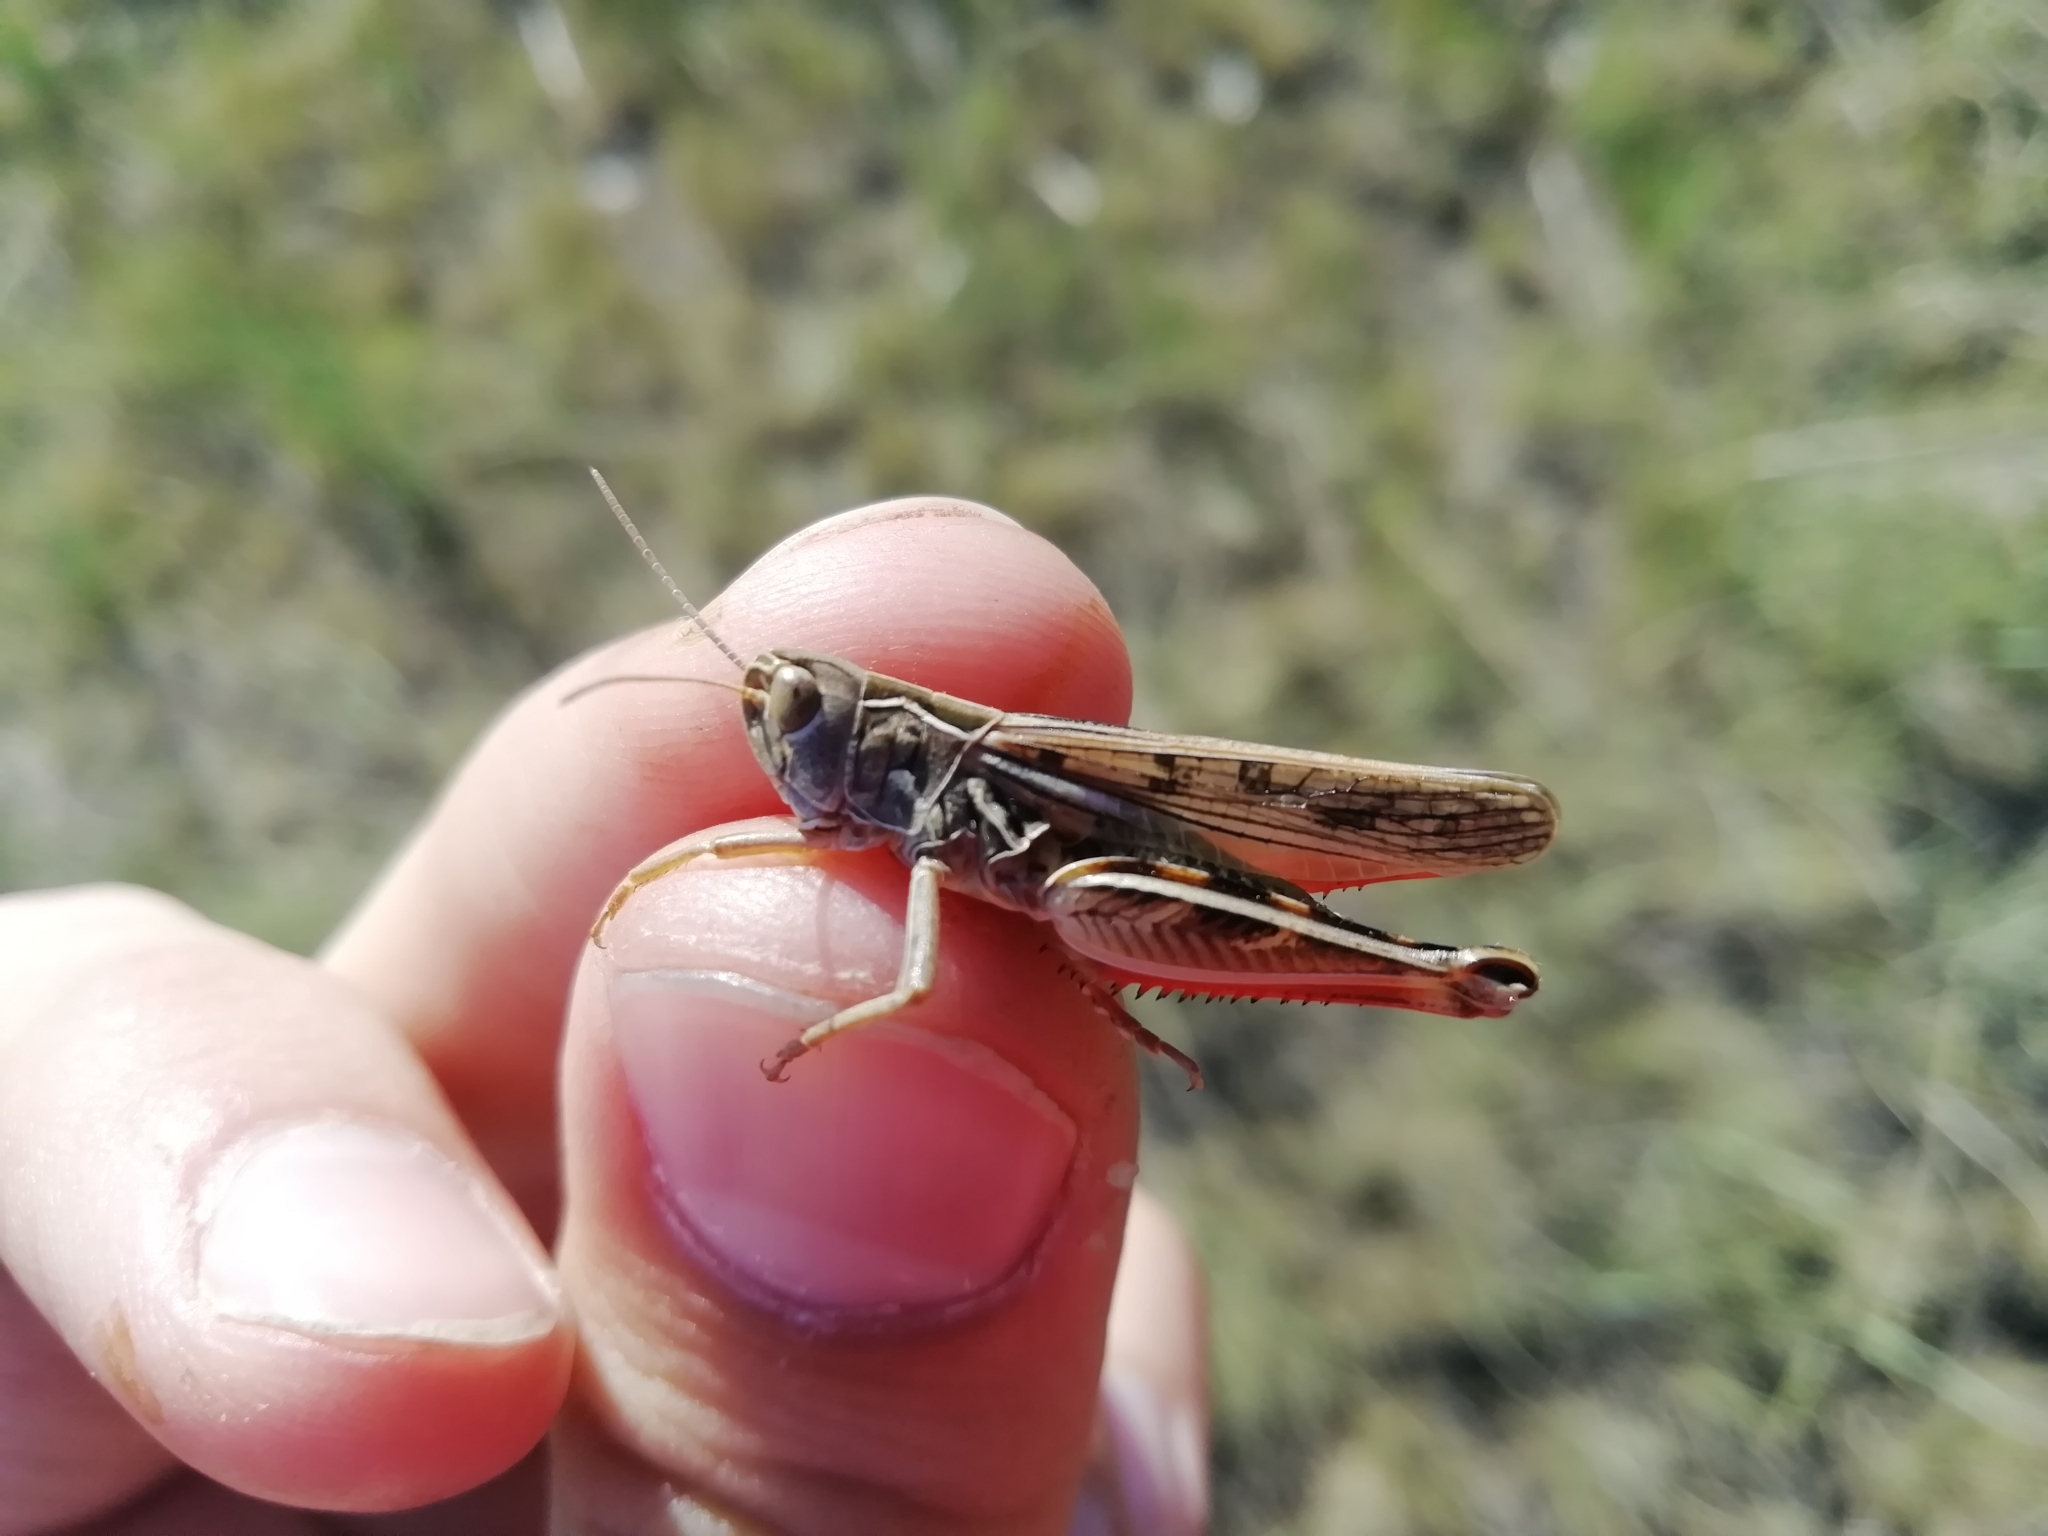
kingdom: Animalia
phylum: Arthropoda
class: Insecta
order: Orthoptera
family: Acrididae
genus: Arcyptera
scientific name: Arcyptera microptera
